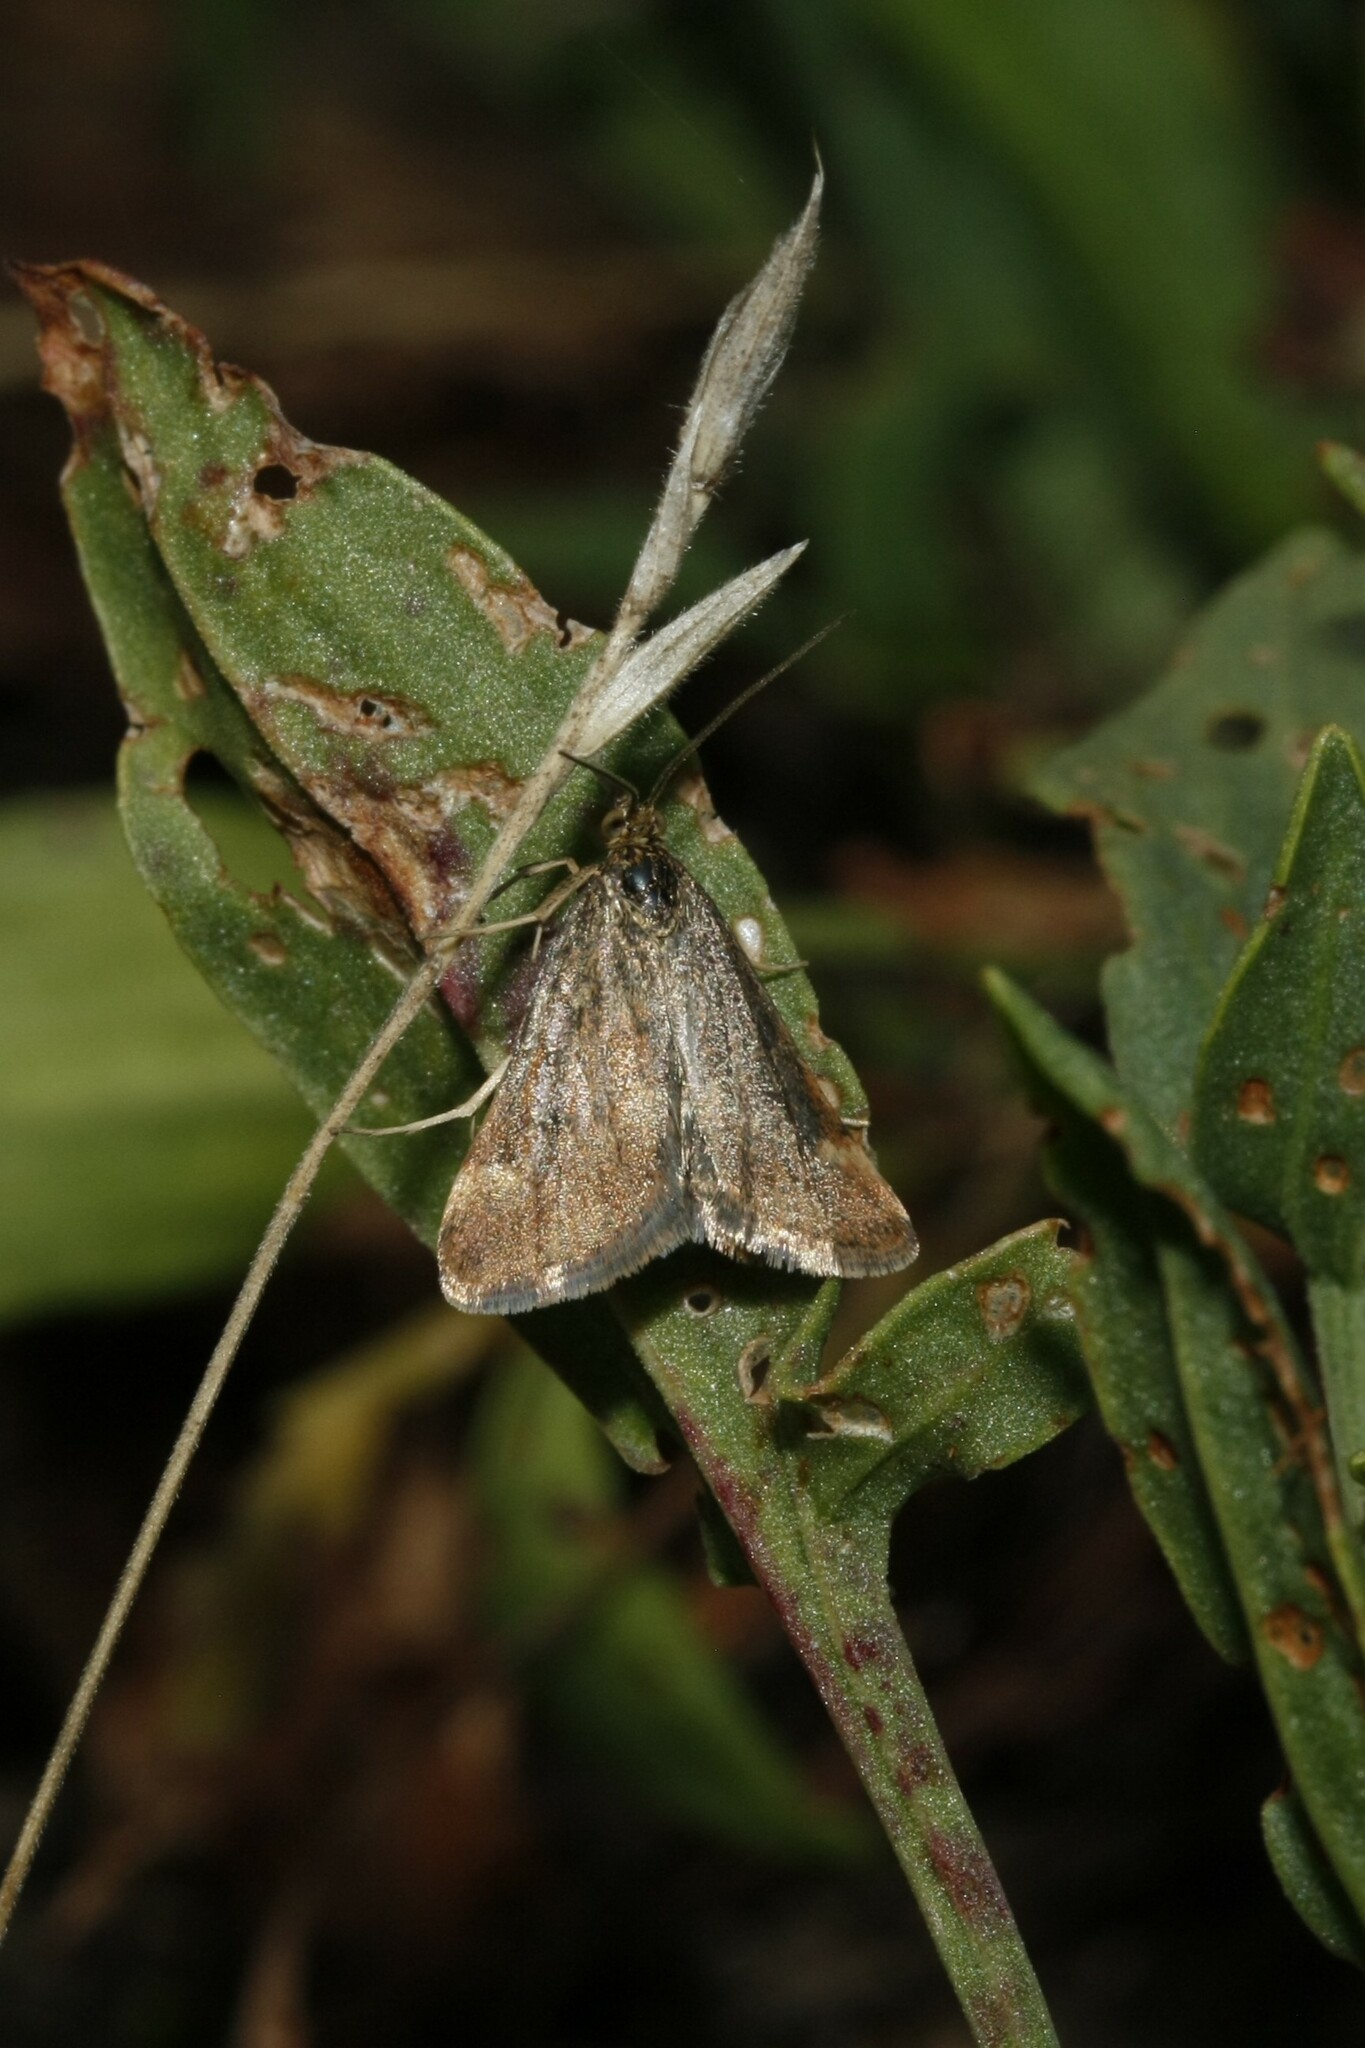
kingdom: Animalia
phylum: Arthropoda
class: Insecta
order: Lepidoptera
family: Crambidae
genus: Pyrausta
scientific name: Pyrausta despicata
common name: Straw-barred pearl
